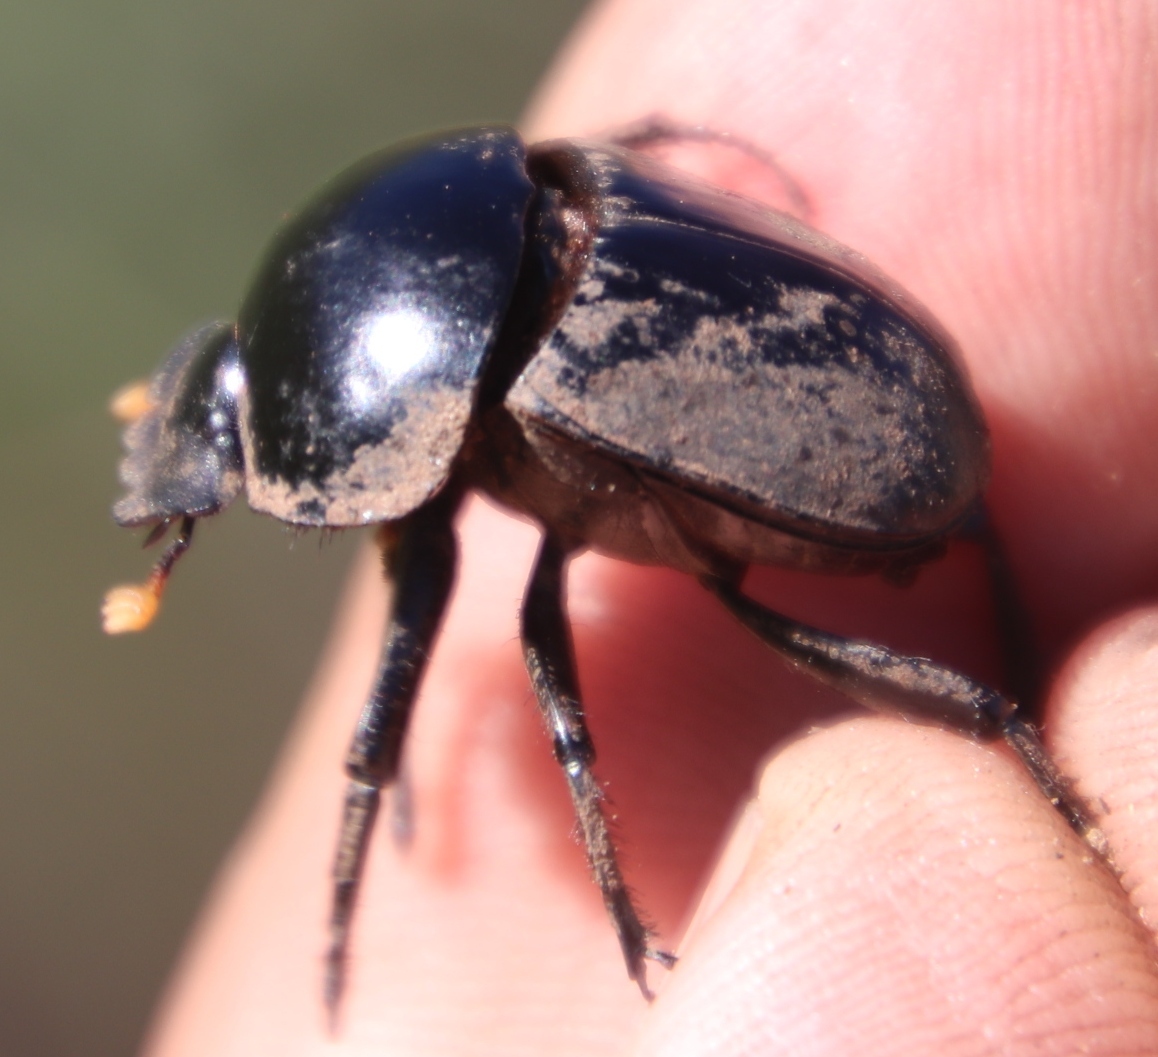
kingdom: Animalia
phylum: Arthropoda
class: Insecta
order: Coleoptera
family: Scarabaeidae
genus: Scarabaeus
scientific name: Scarabaeus rusticus
